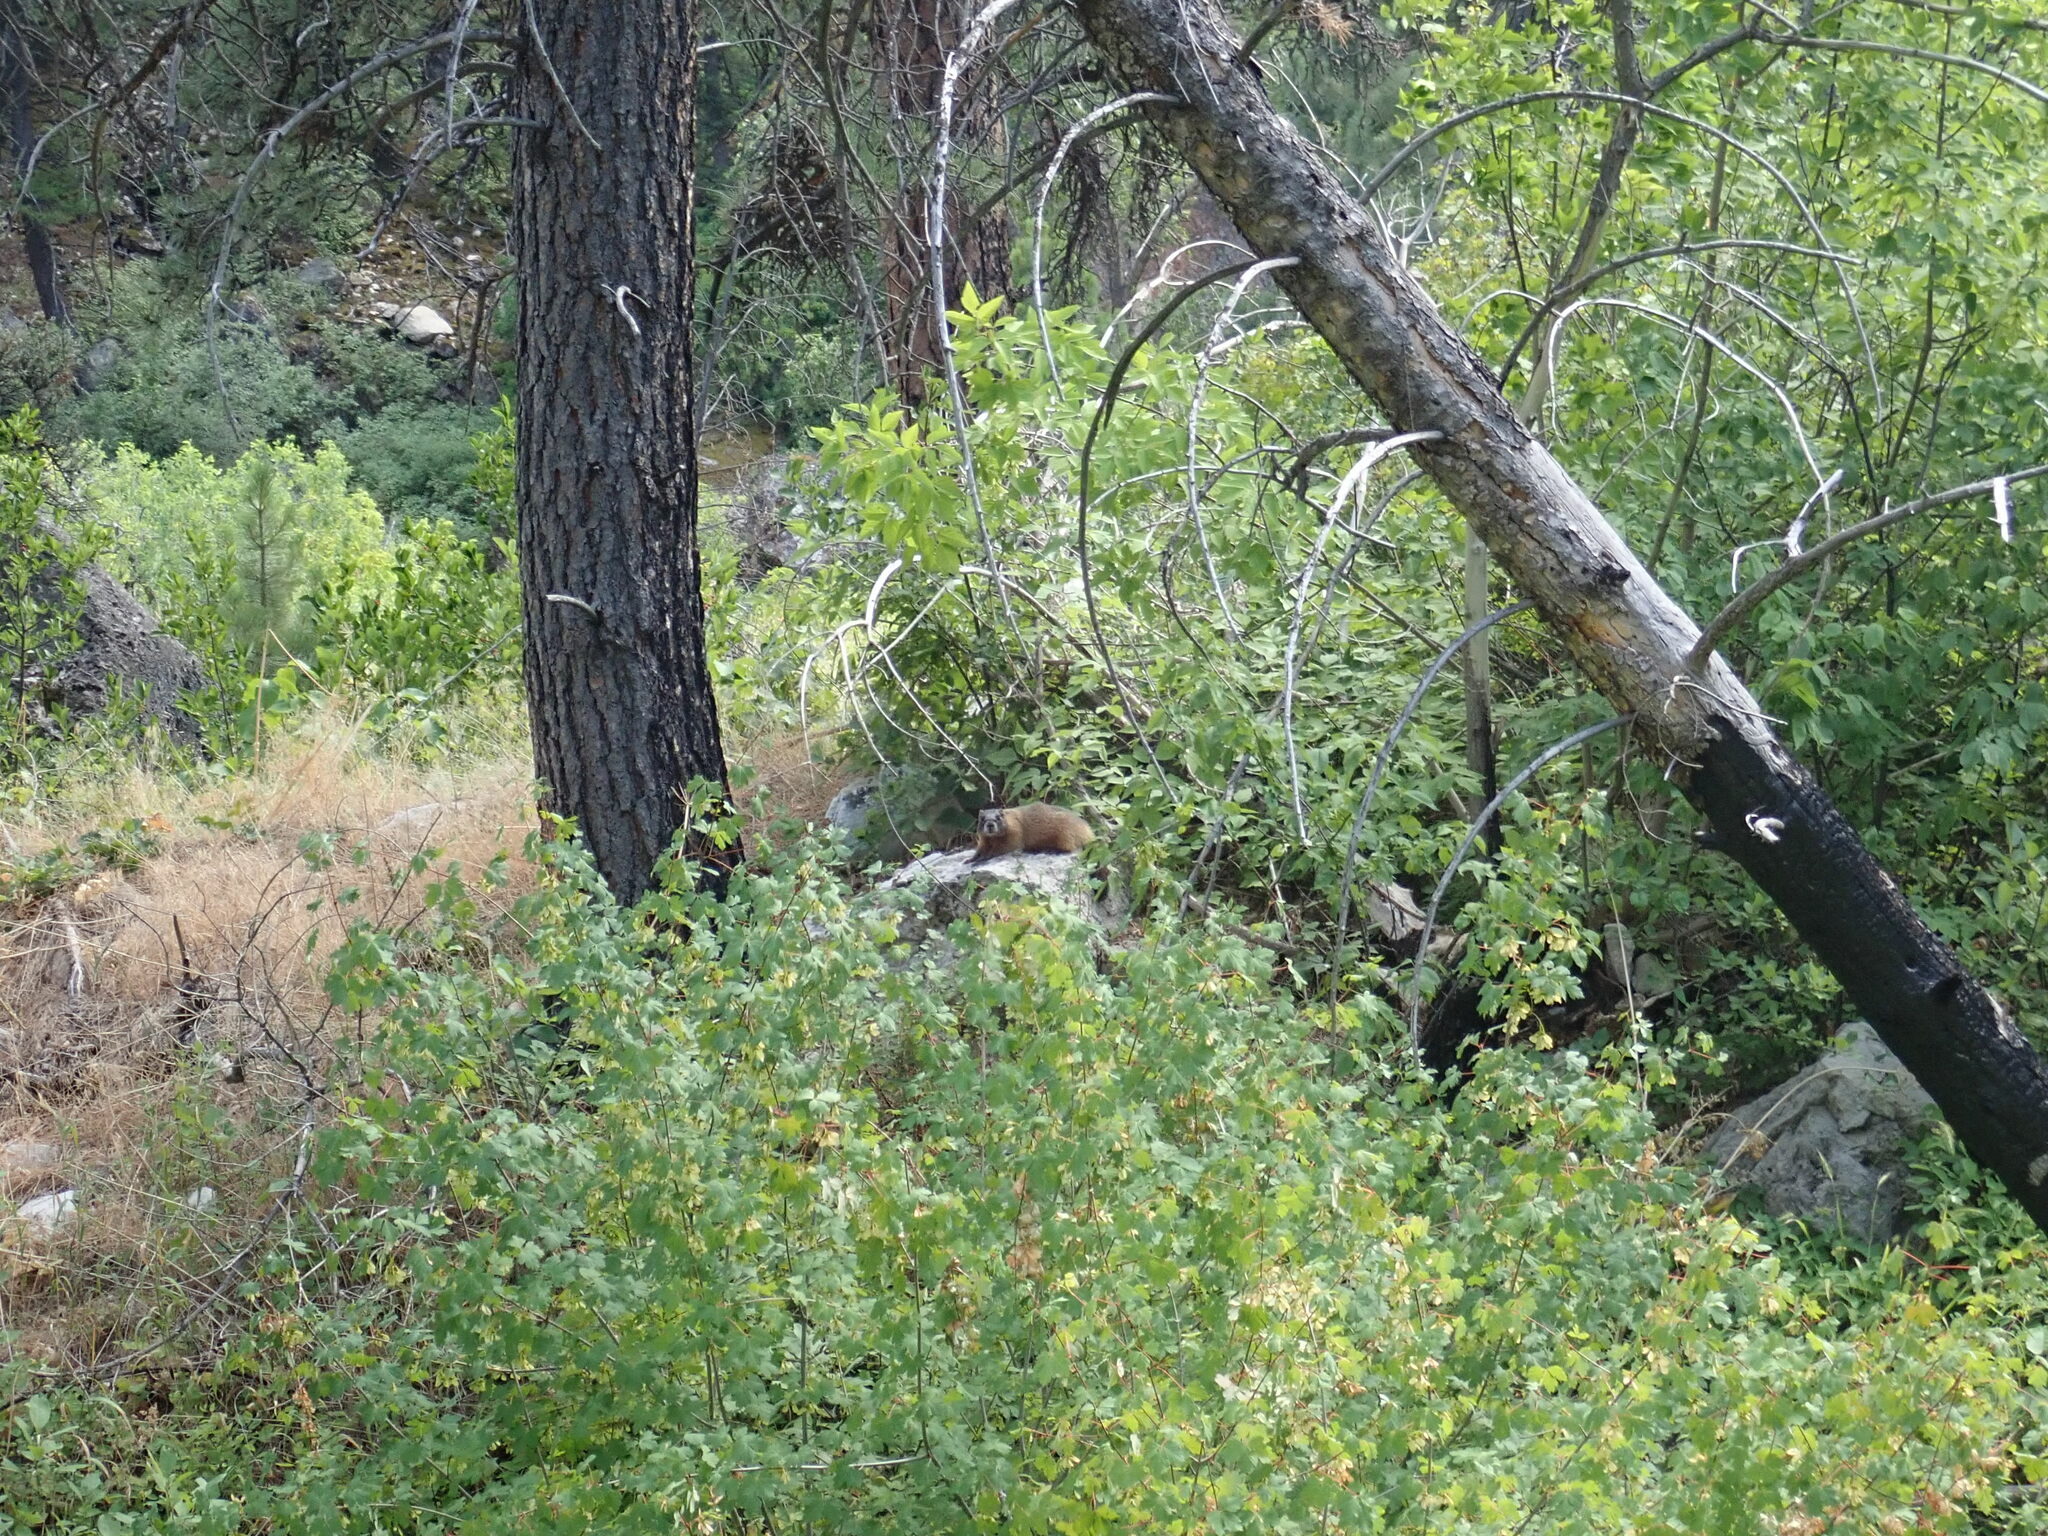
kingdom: Animalia
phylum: Chordata
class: Mammalia
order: Rodentia
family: Sciuridae
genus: Marmota
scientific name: Marmota flaviventris
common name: Yellow-bellied marmot
